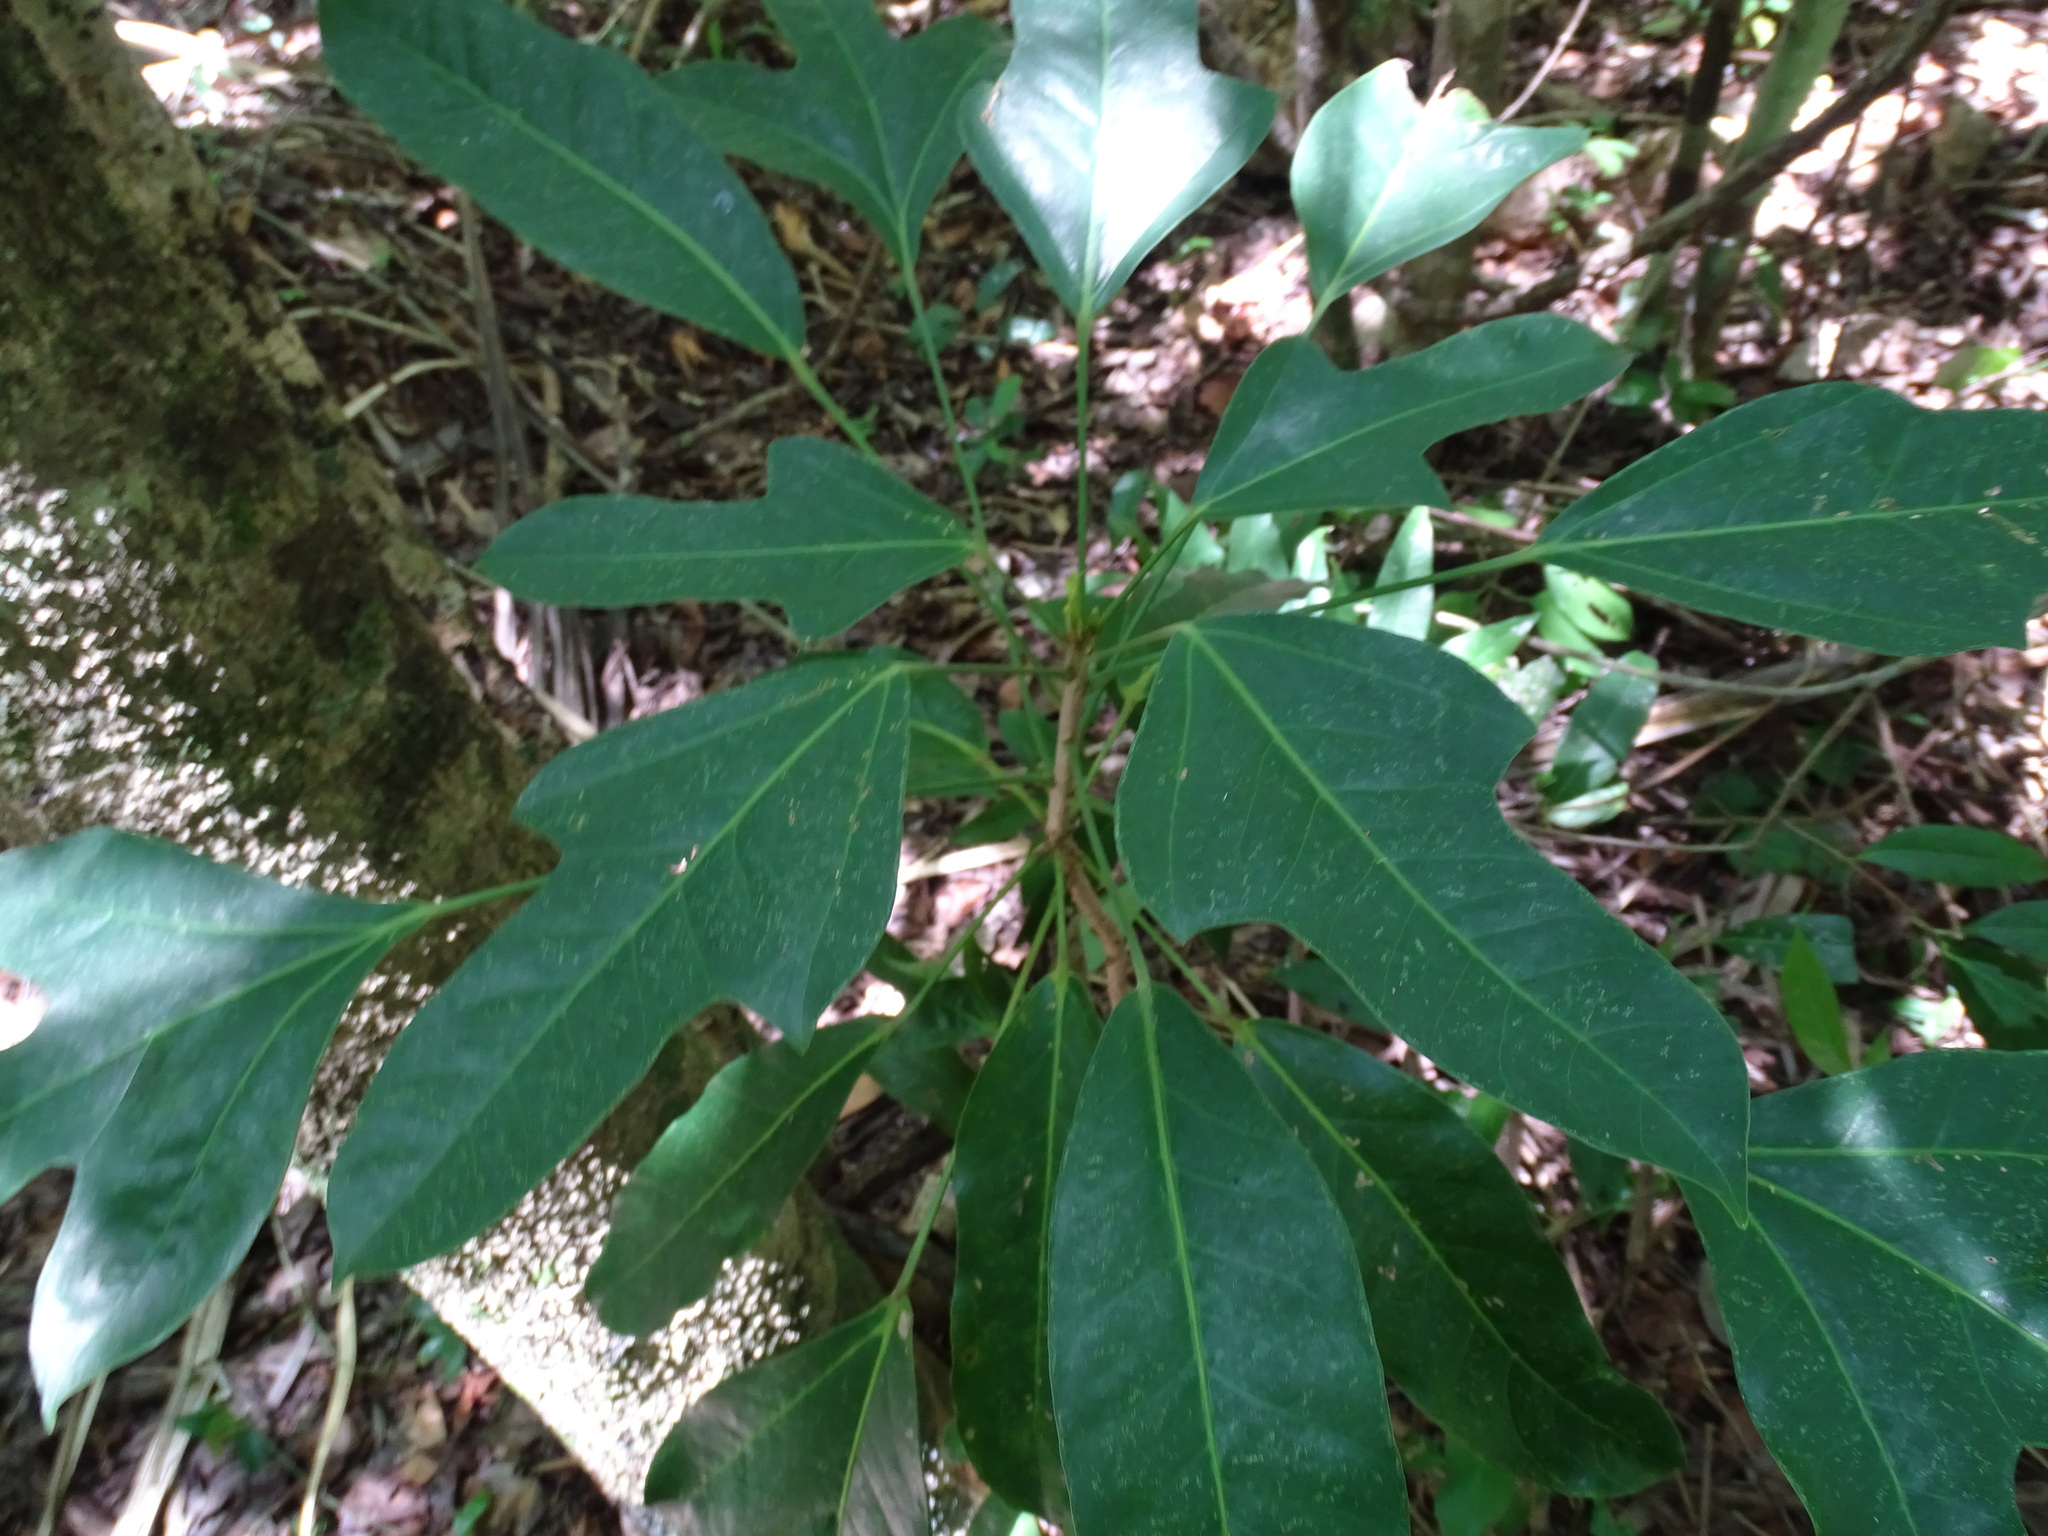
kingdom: Plantae
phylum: Tracheophyta
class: Magnoliopsida
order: Apiales
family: Araliaceae
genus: Dendropanax
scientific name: Dendropanax arboreus
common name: Potato-wood
